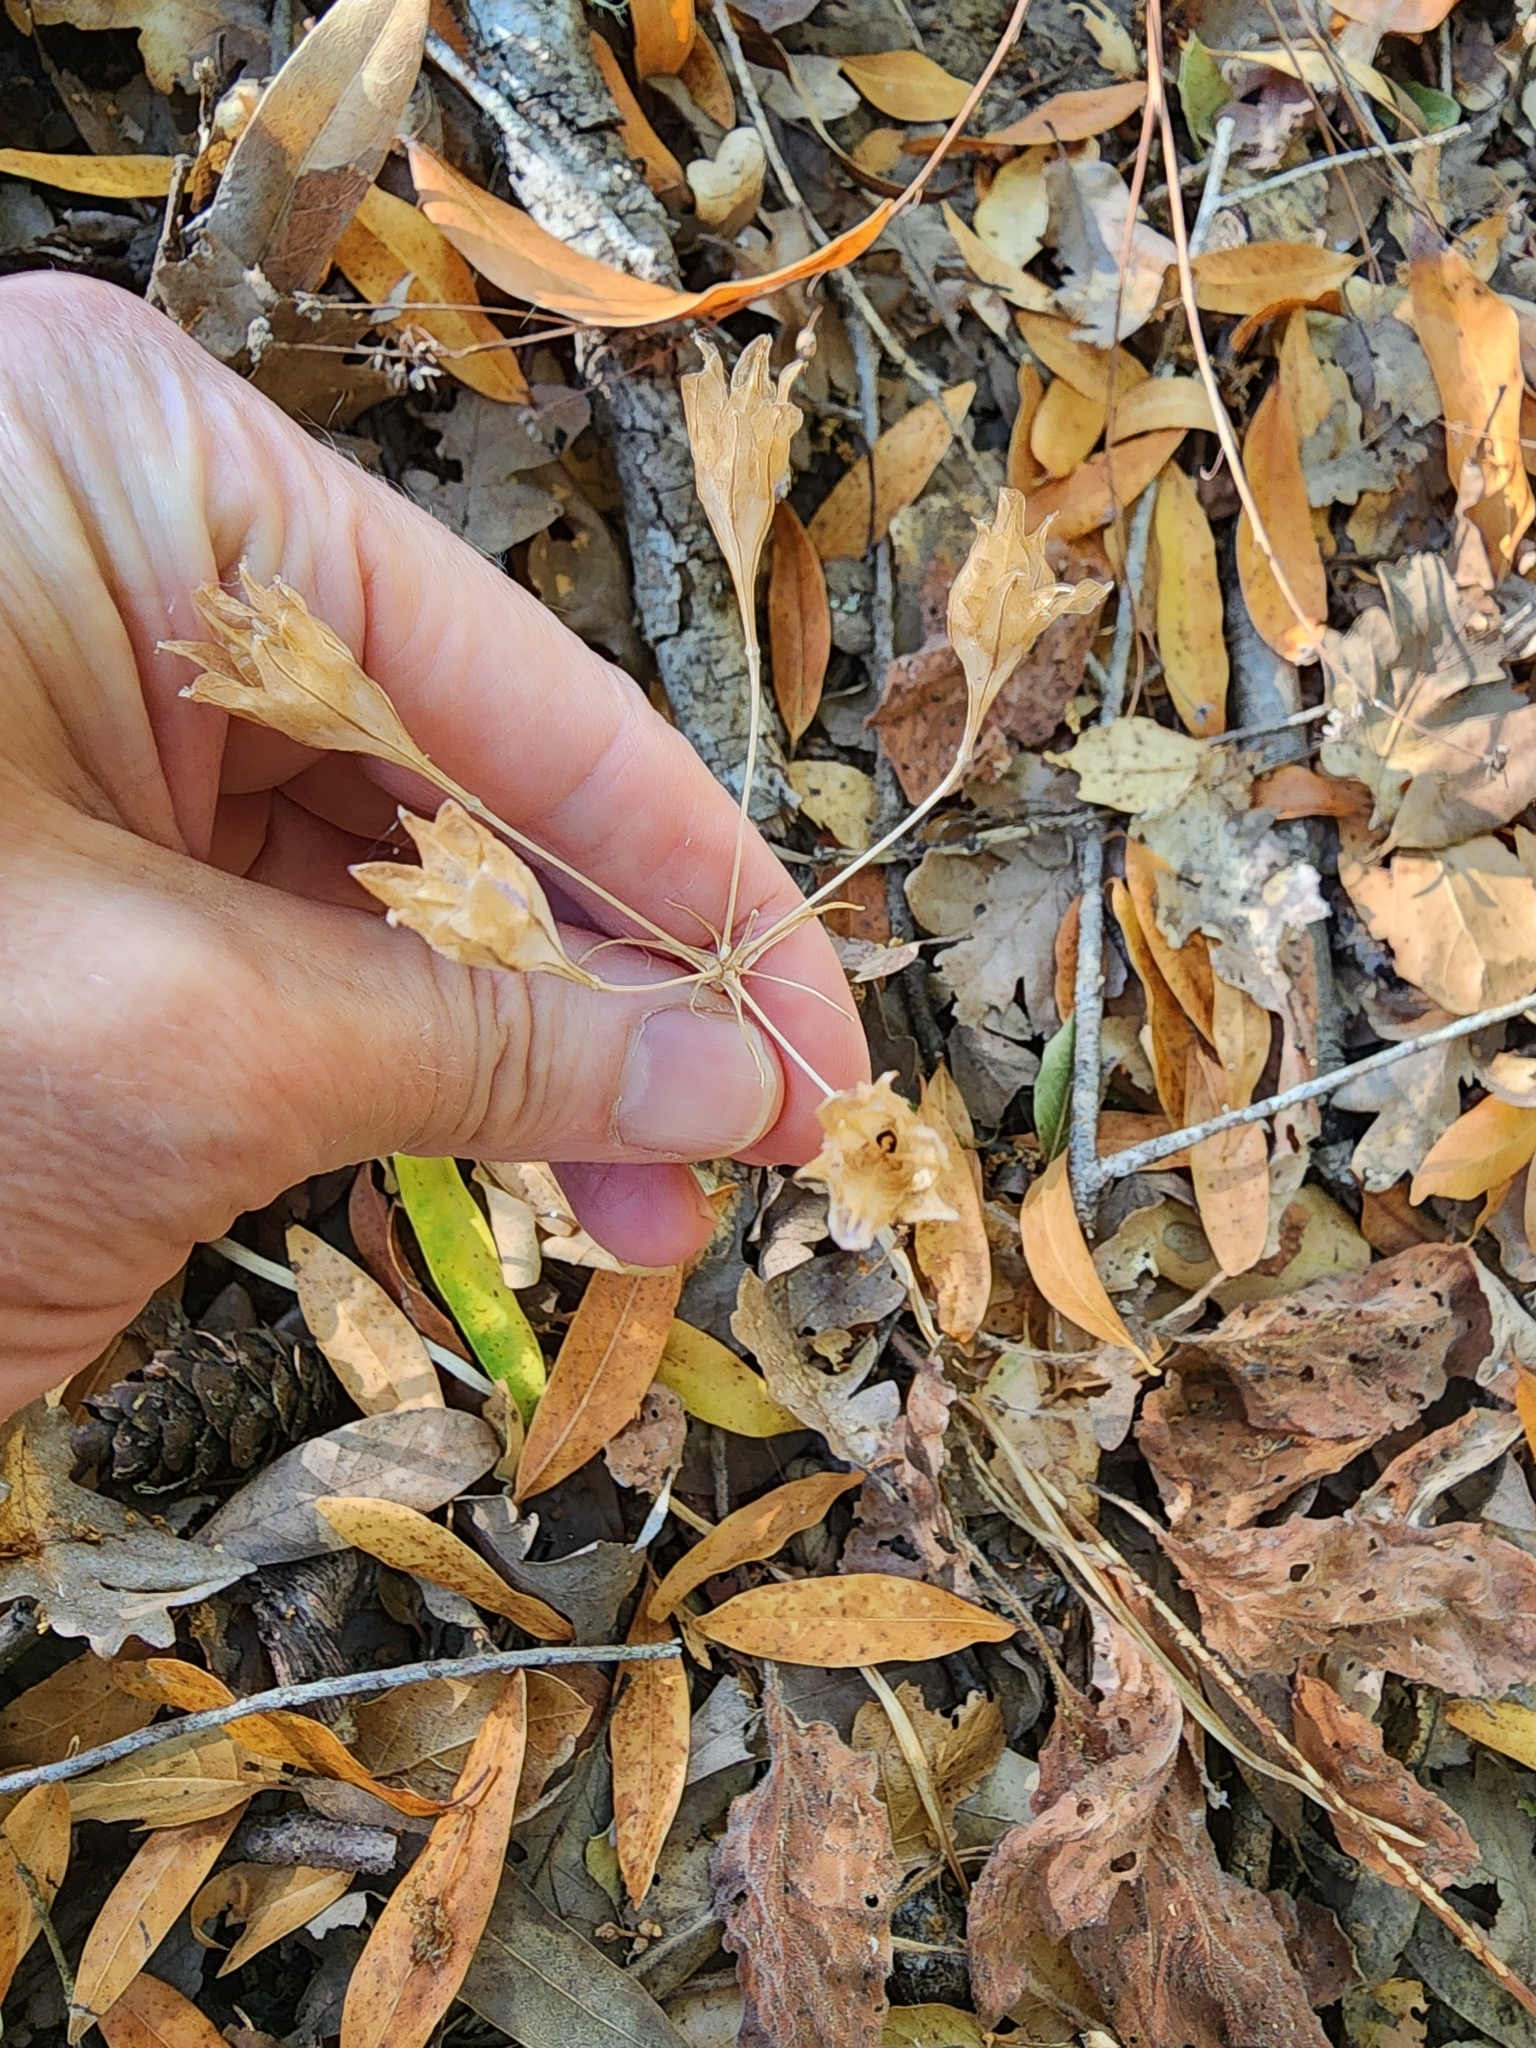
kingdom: Plantae
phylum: Tracheophyta
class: Liliopsida
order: Asparagales
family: Asparagaceae
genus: Triteleia
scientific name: Triteleia laxa
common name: Triplet-lily
